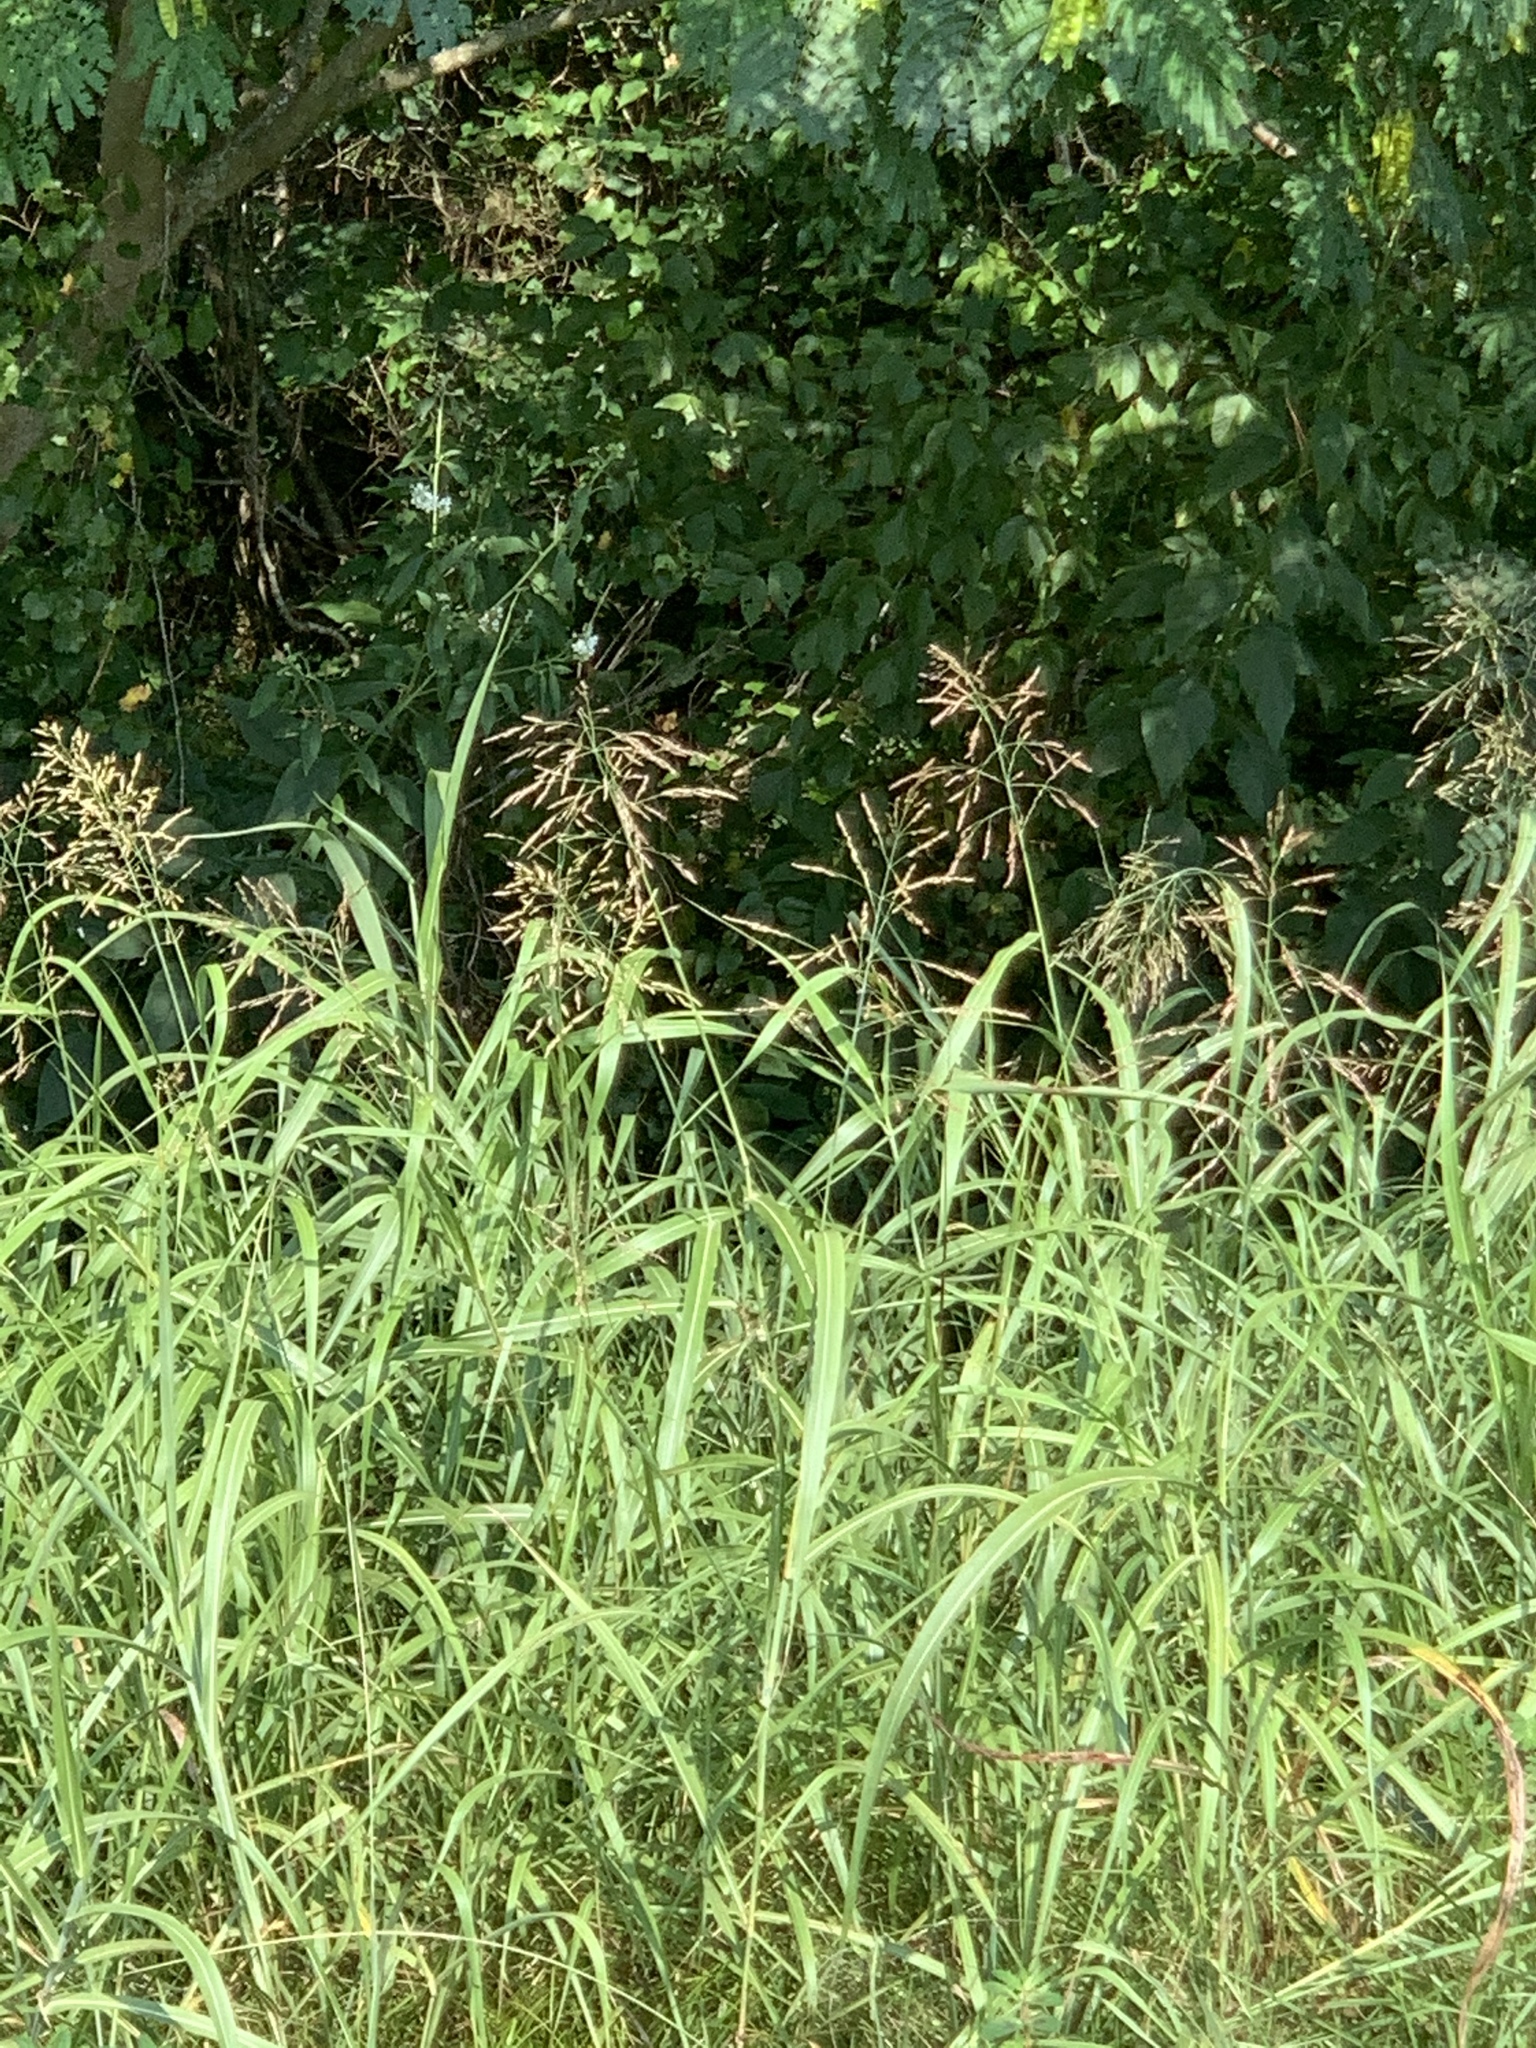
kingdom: Plantae
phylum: Tracheophyta
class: Liliopsida
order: Poales
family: Poaceae
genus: Sorghum
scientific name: Sorghum halepense
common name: Johnson-grass
